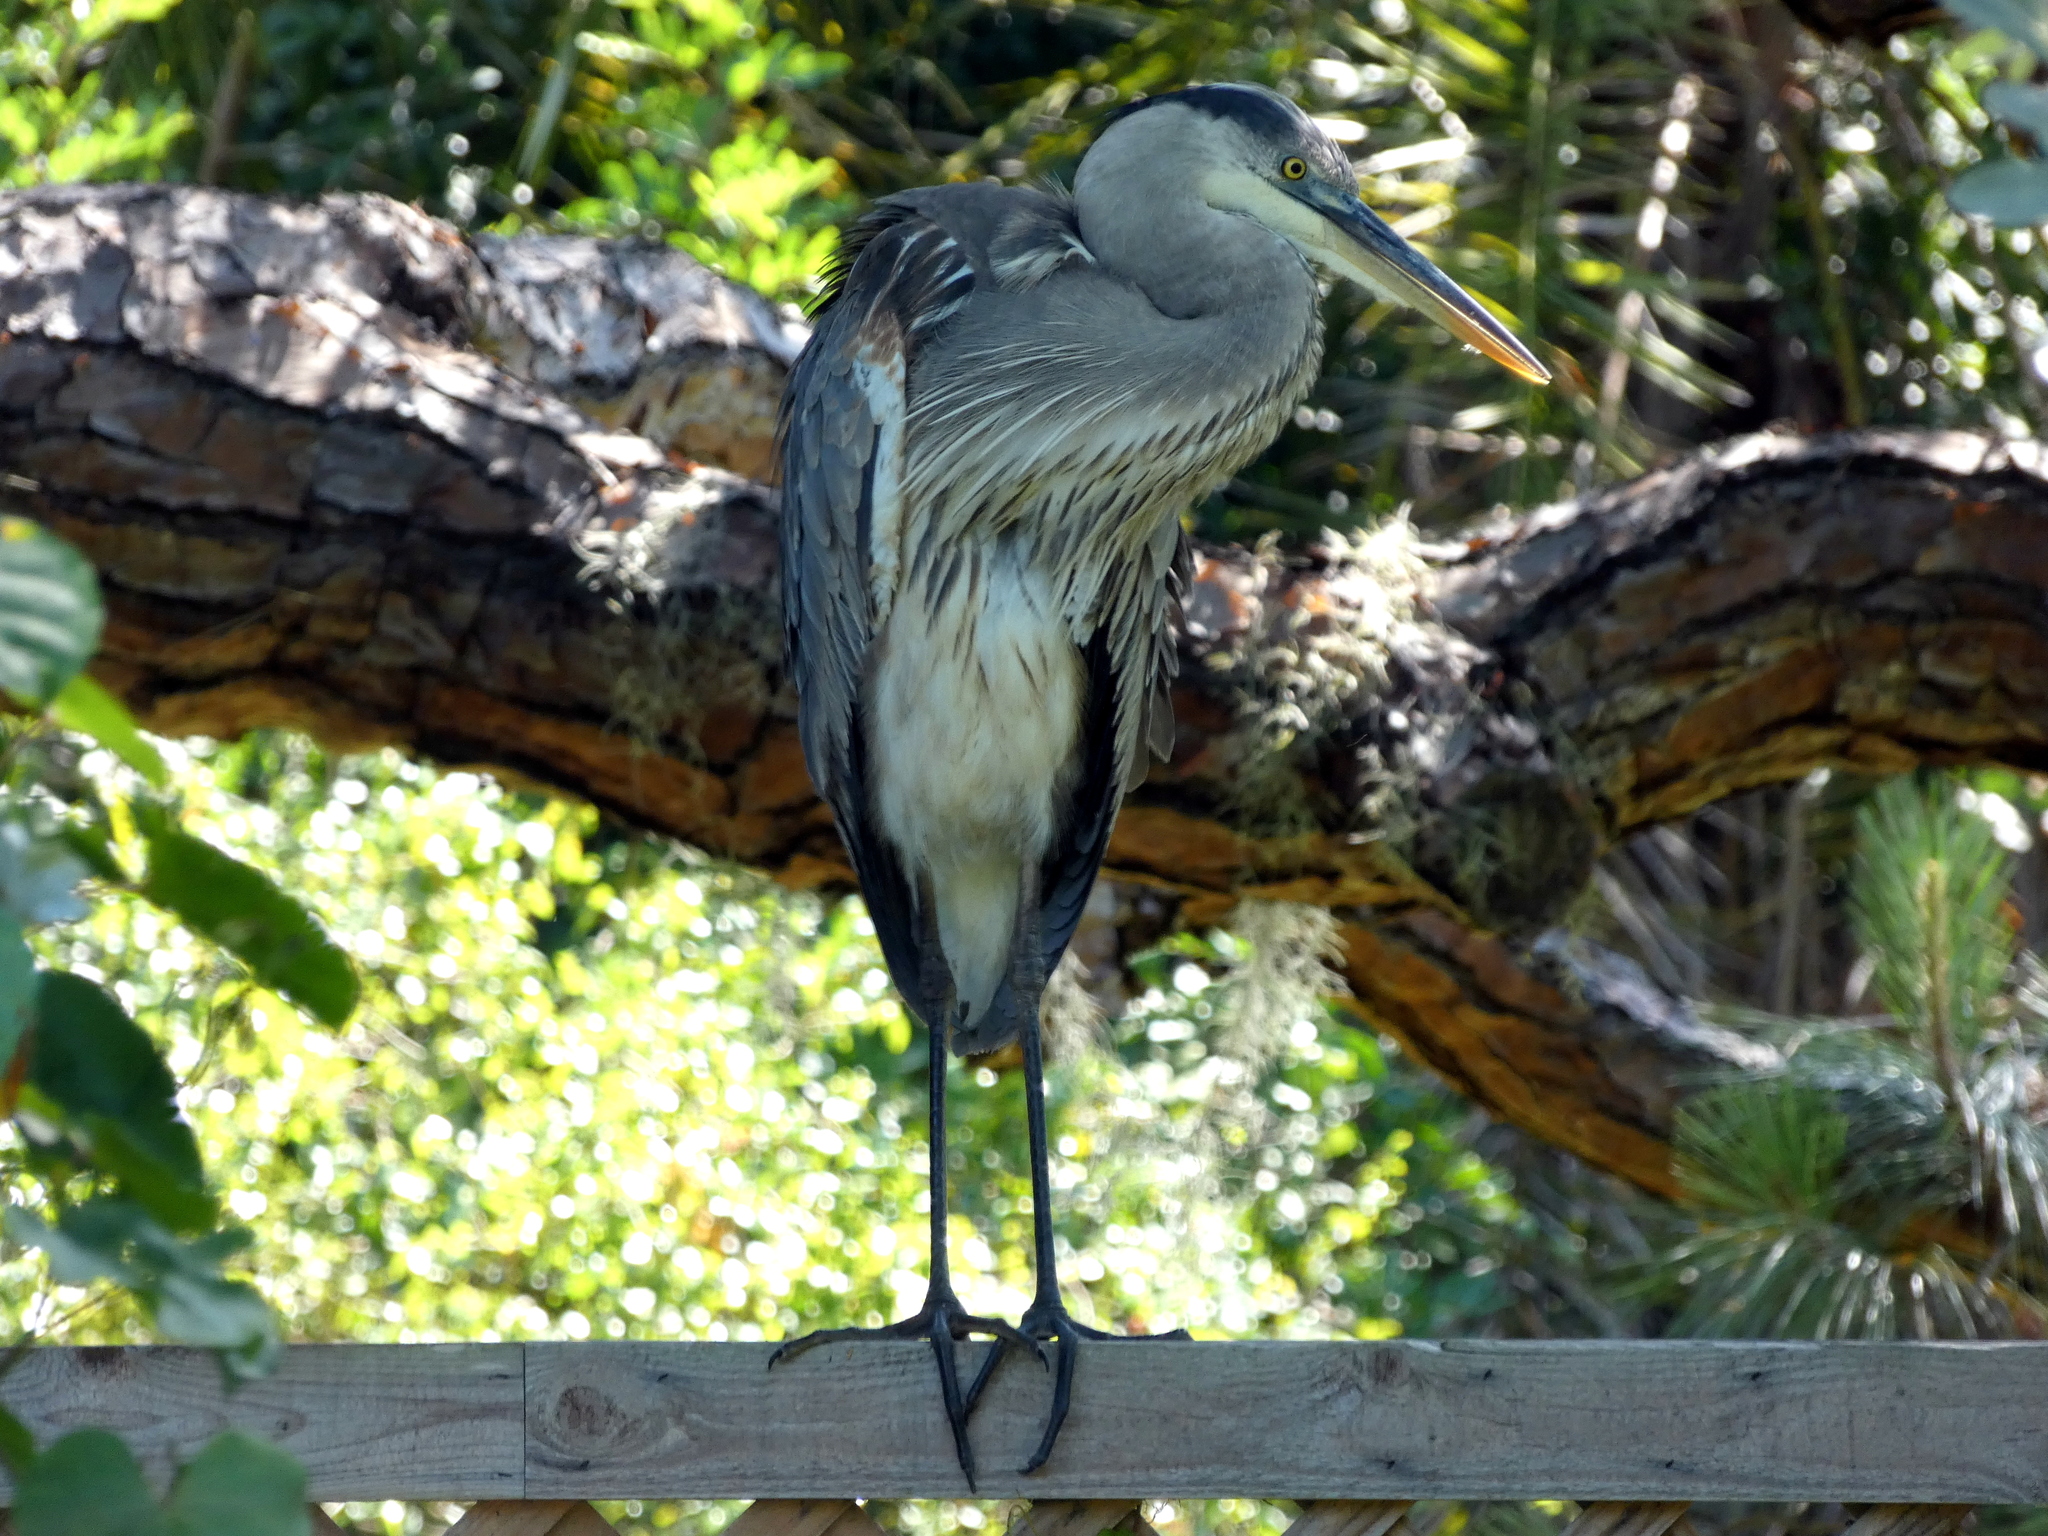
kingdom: Animalia
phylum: Chordata
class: Aves
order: Pelecaniformes
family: Ardeidae
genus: Ardea
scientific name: Ardea herodias
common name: Great blue heron
